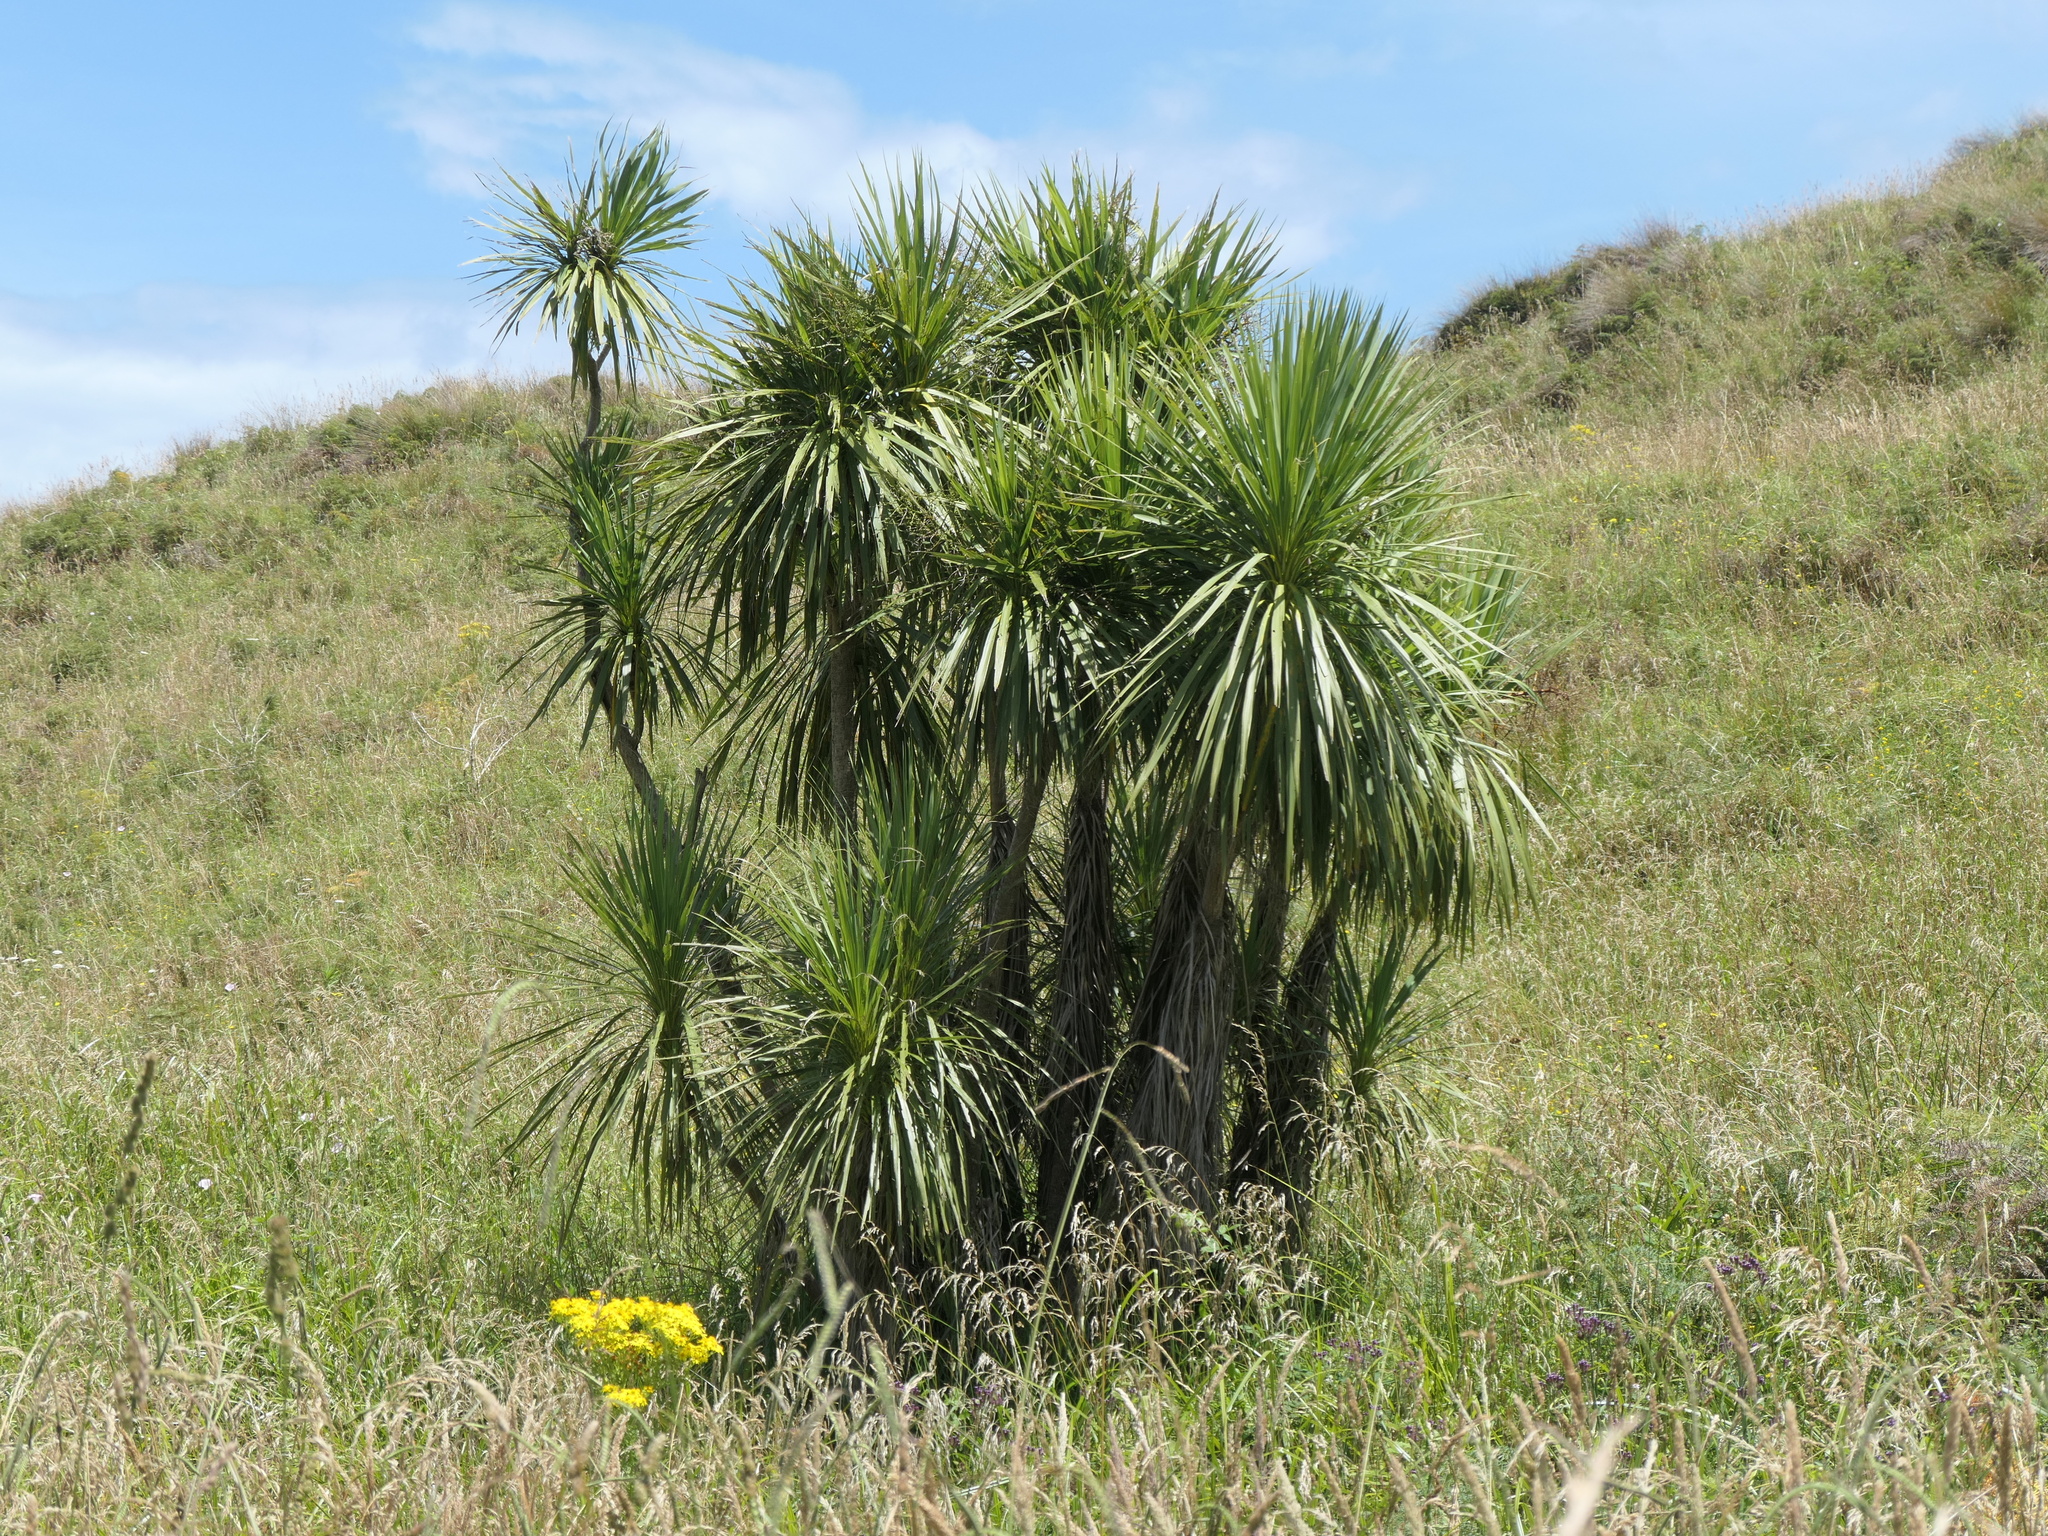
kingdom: Plantae
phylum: Tracheophyta
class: Liliopsida
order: Asparagales
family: Asparagaceae
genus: Cordyline
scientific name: Cordyline australis
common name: Cabbage-palm
